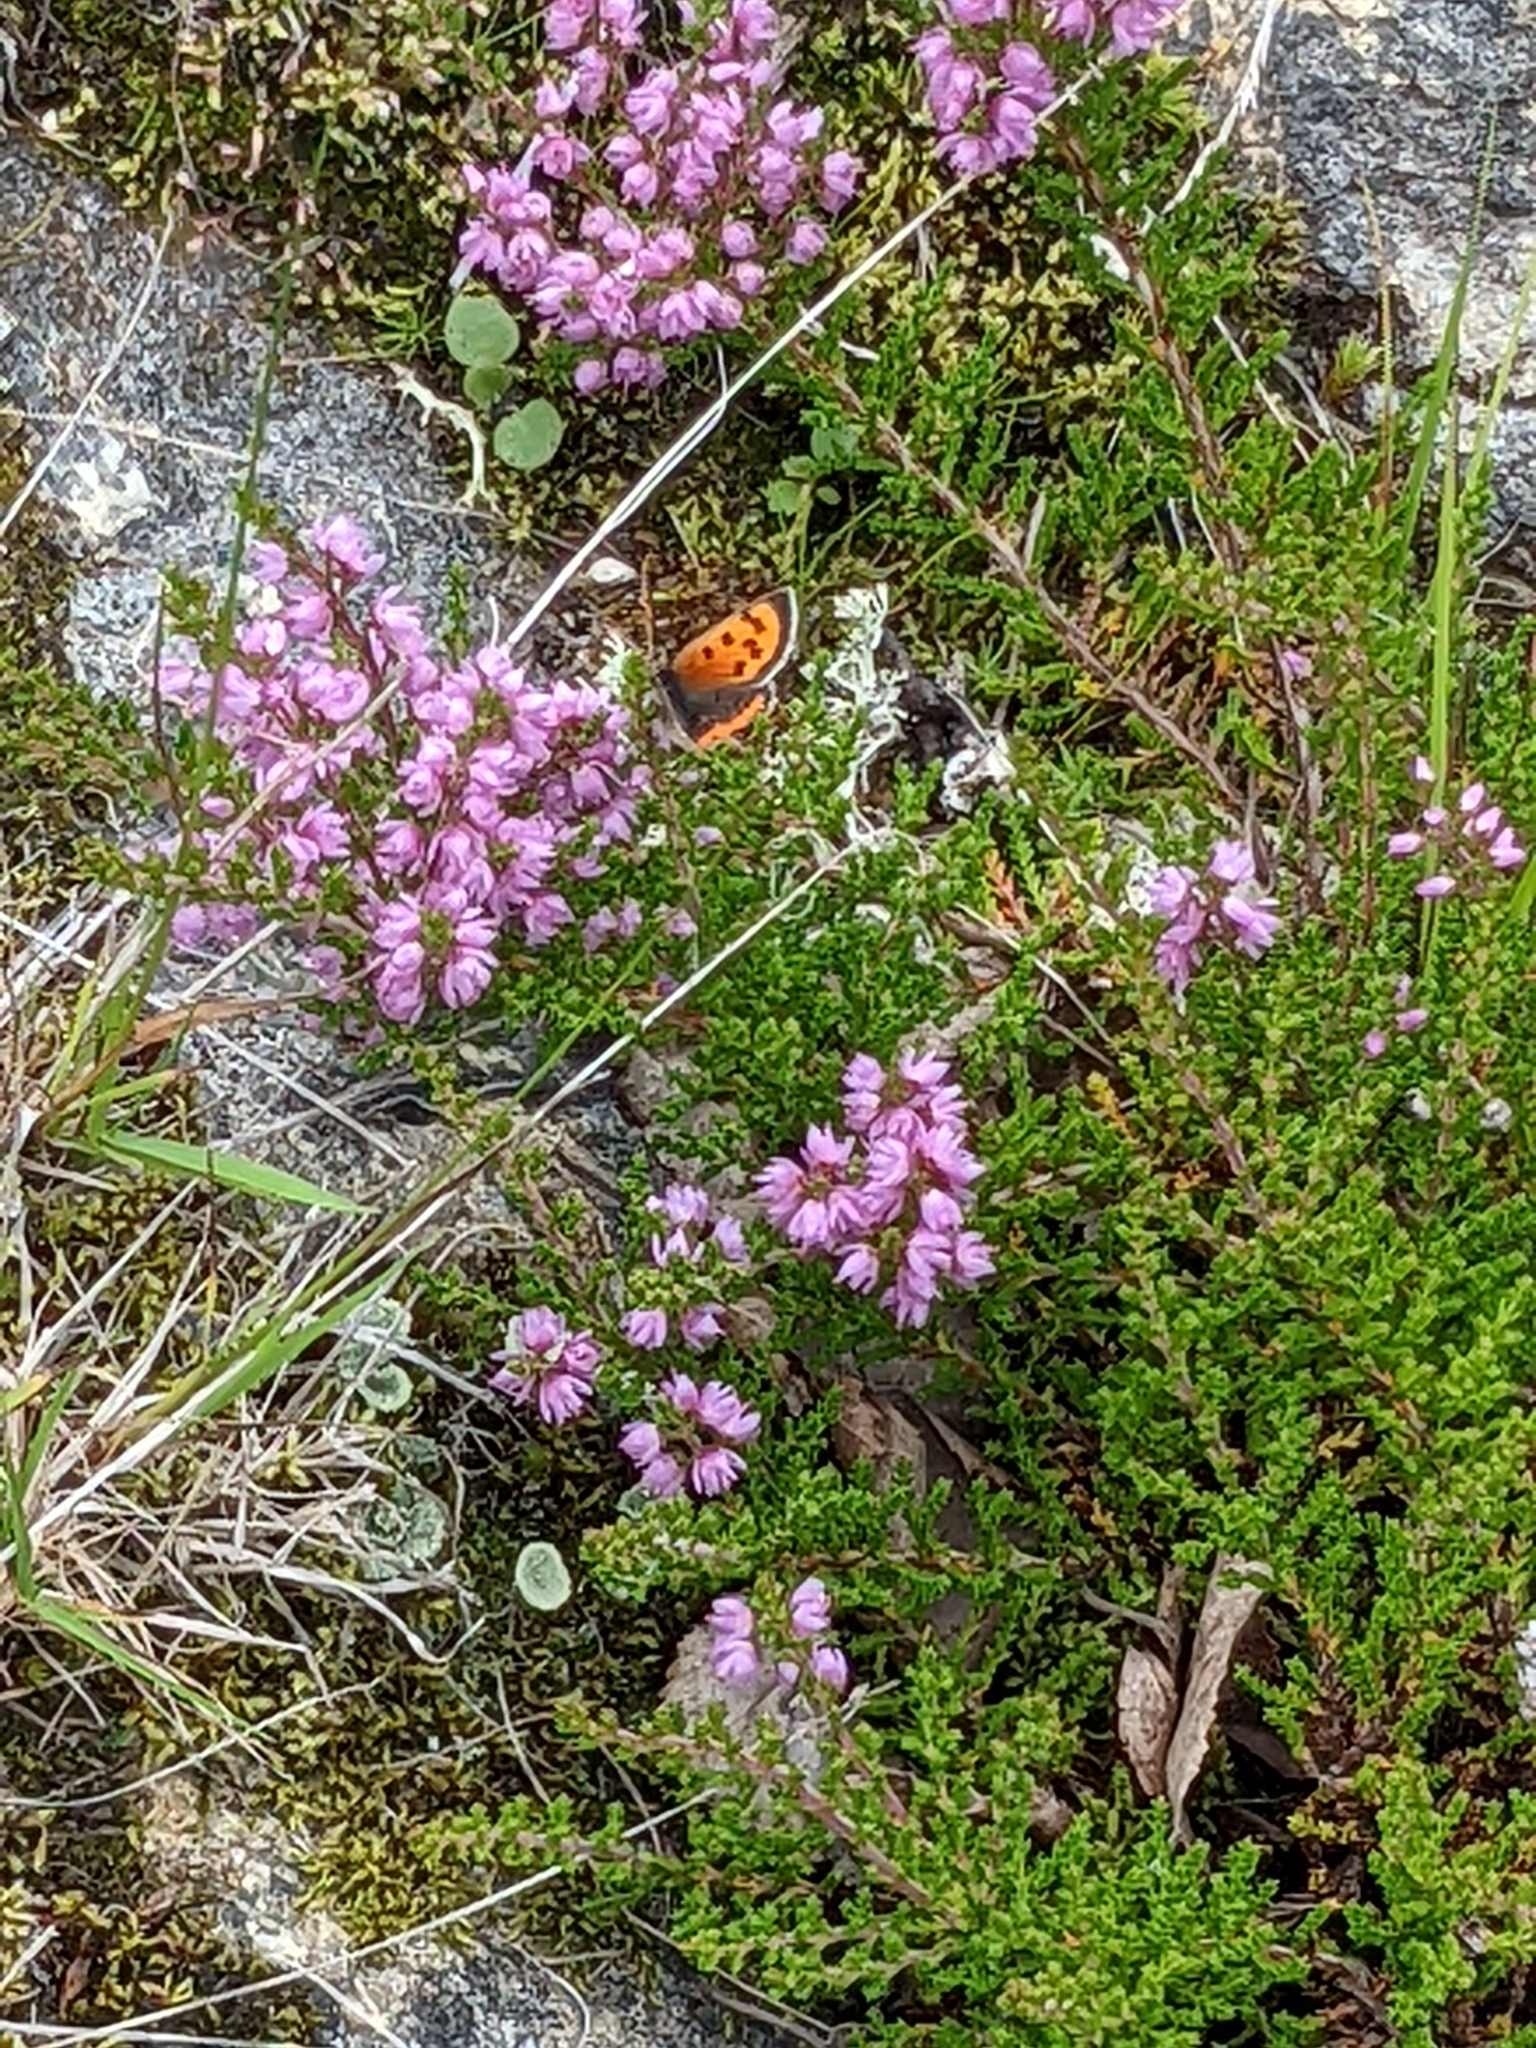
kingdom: Animalia
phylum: Arthropoda
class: Insecta
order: Lepidoptera
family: Lycaenidae
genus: Lycaena
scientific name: Lycaena phlaeas
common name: Small copper
